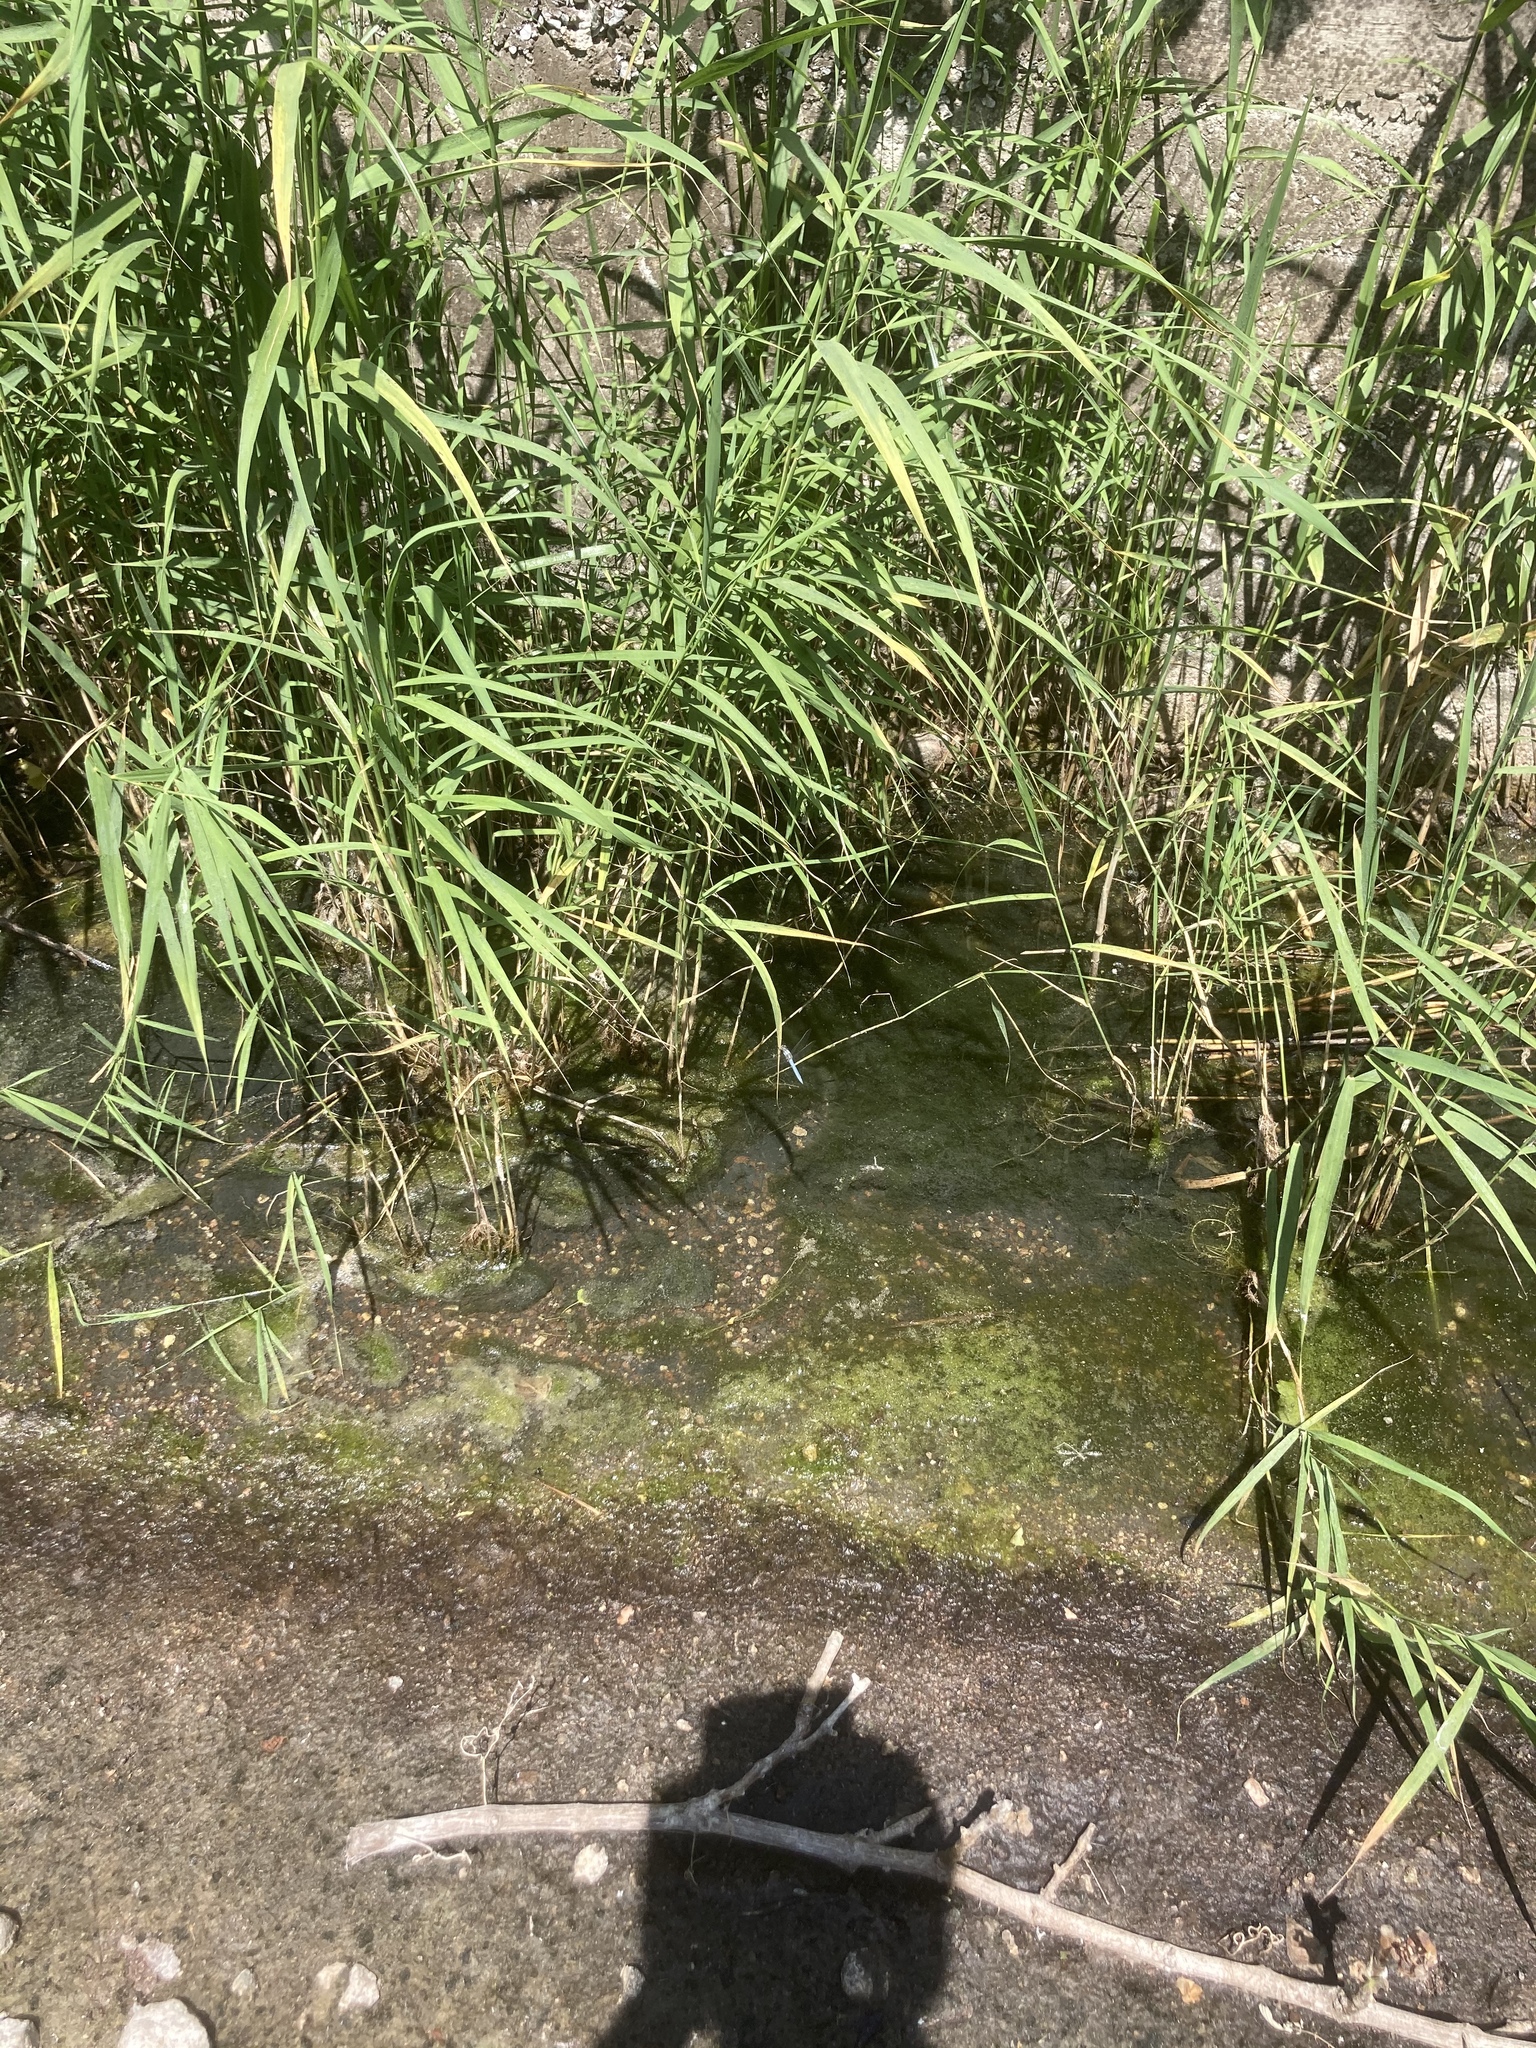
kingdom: Animalia
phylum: Arthropoda
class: Insecta
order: Odonata
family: Libellulidae
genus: Orthetrum
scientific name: Orthetrum brunneum
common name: Southern skimmer
